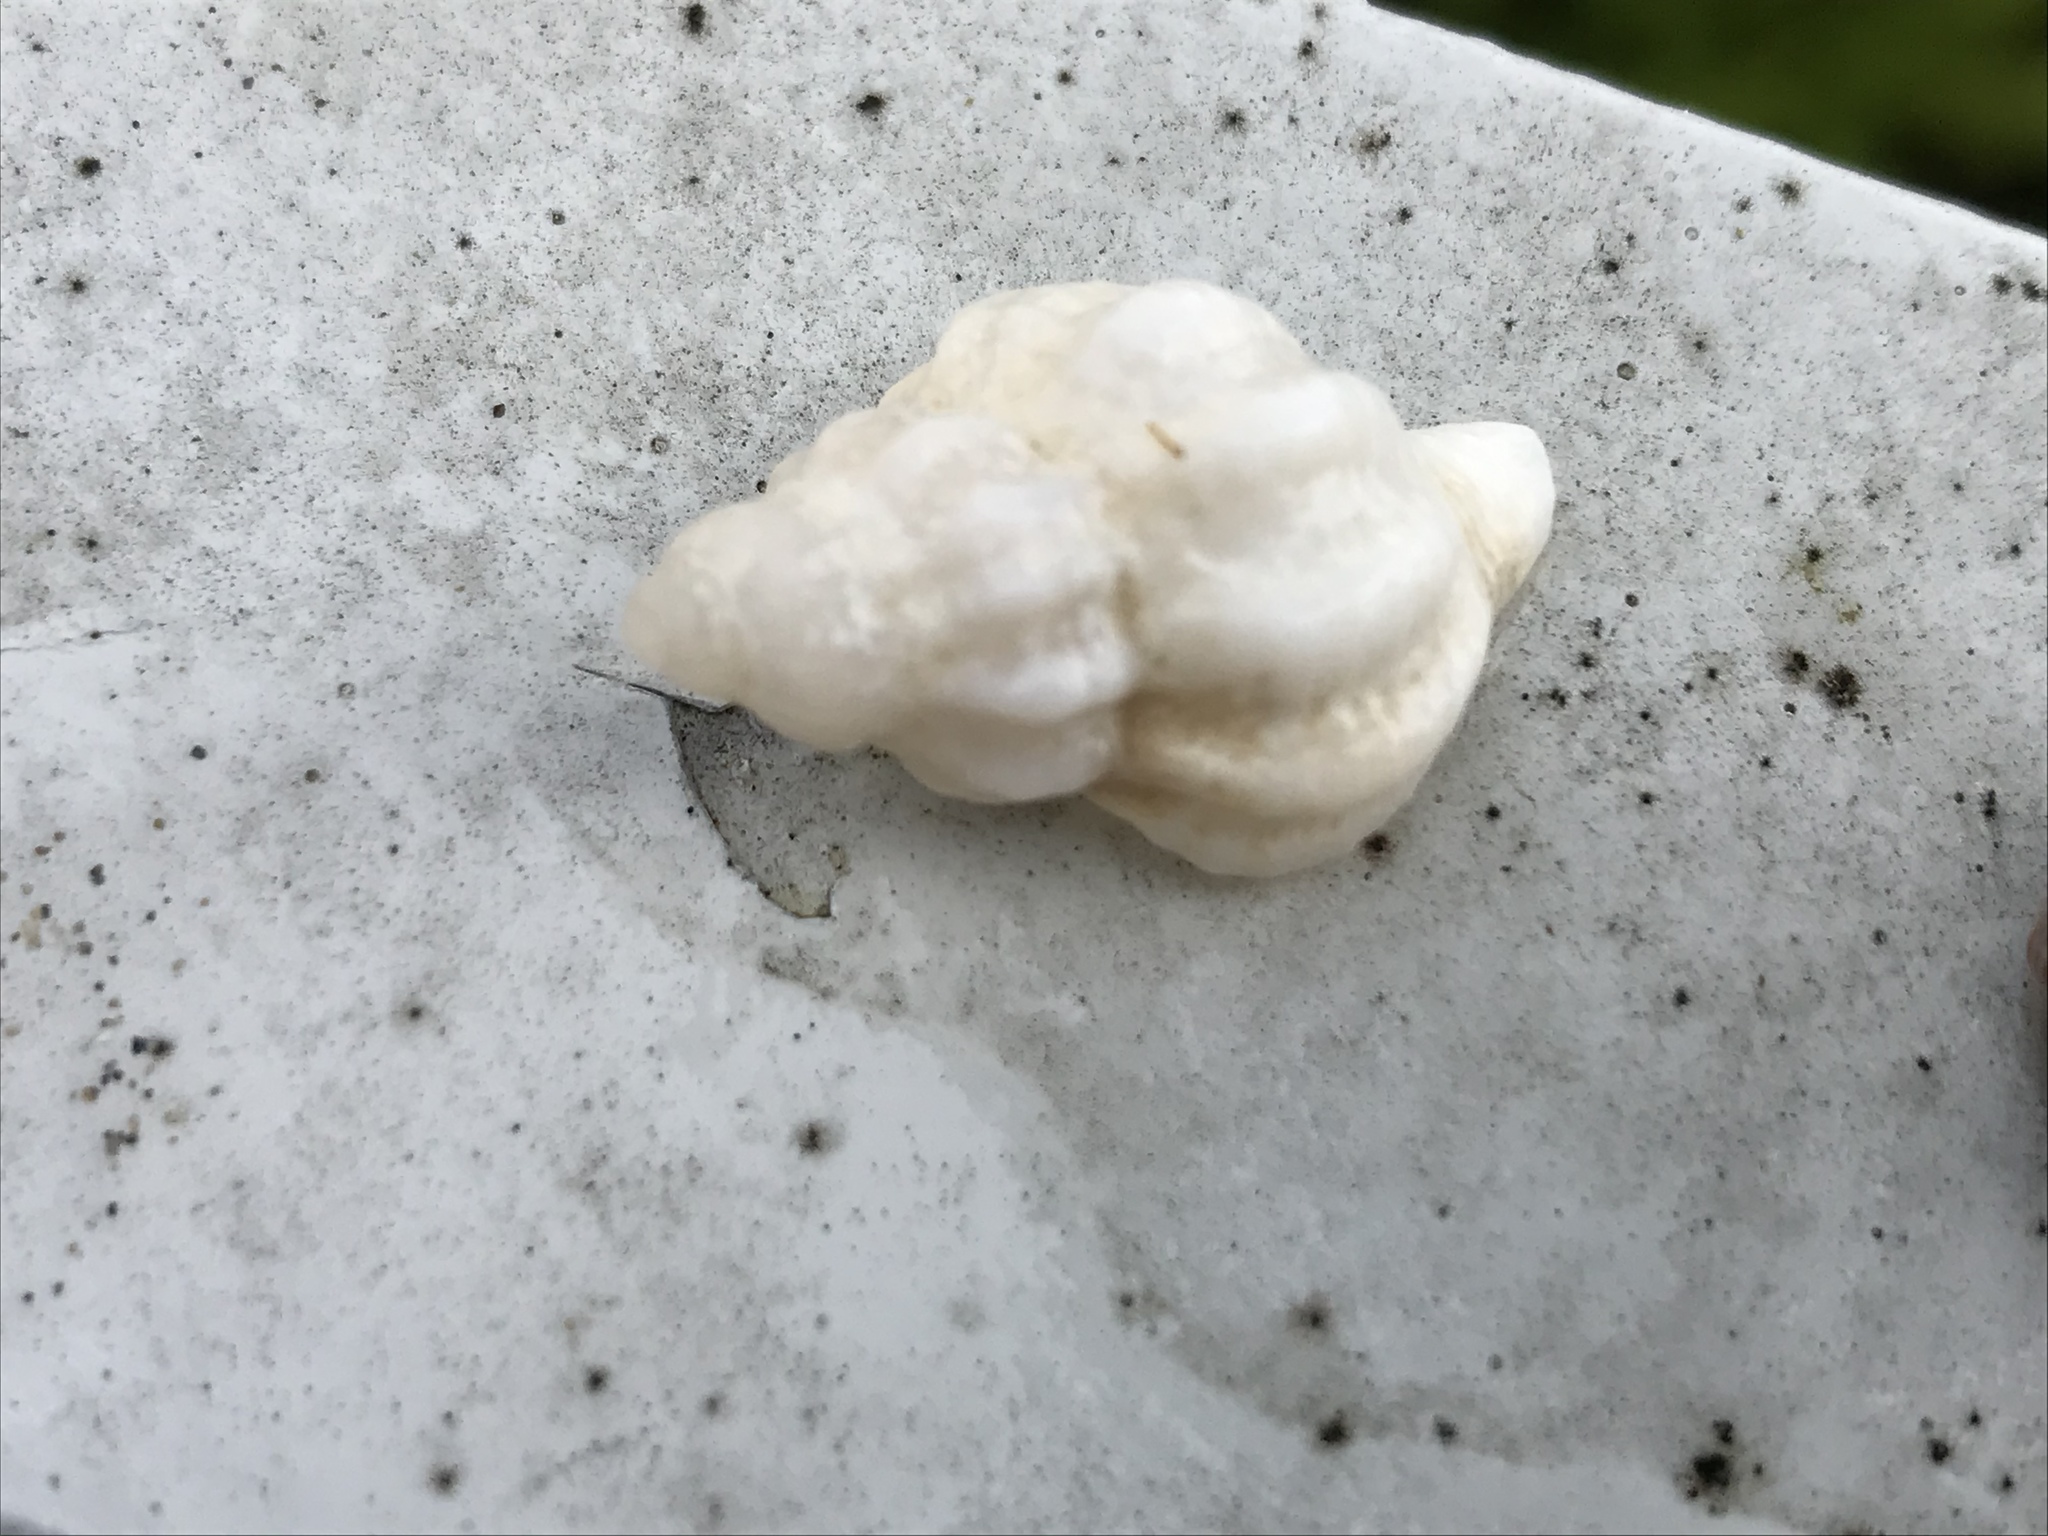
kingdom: Animalia
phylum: Mollusca
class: Gastropoda
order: Neogastropoda
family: Muricidae
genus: Urosalpinx
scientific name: Urosalpinx cinerea
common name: American sting winkle
